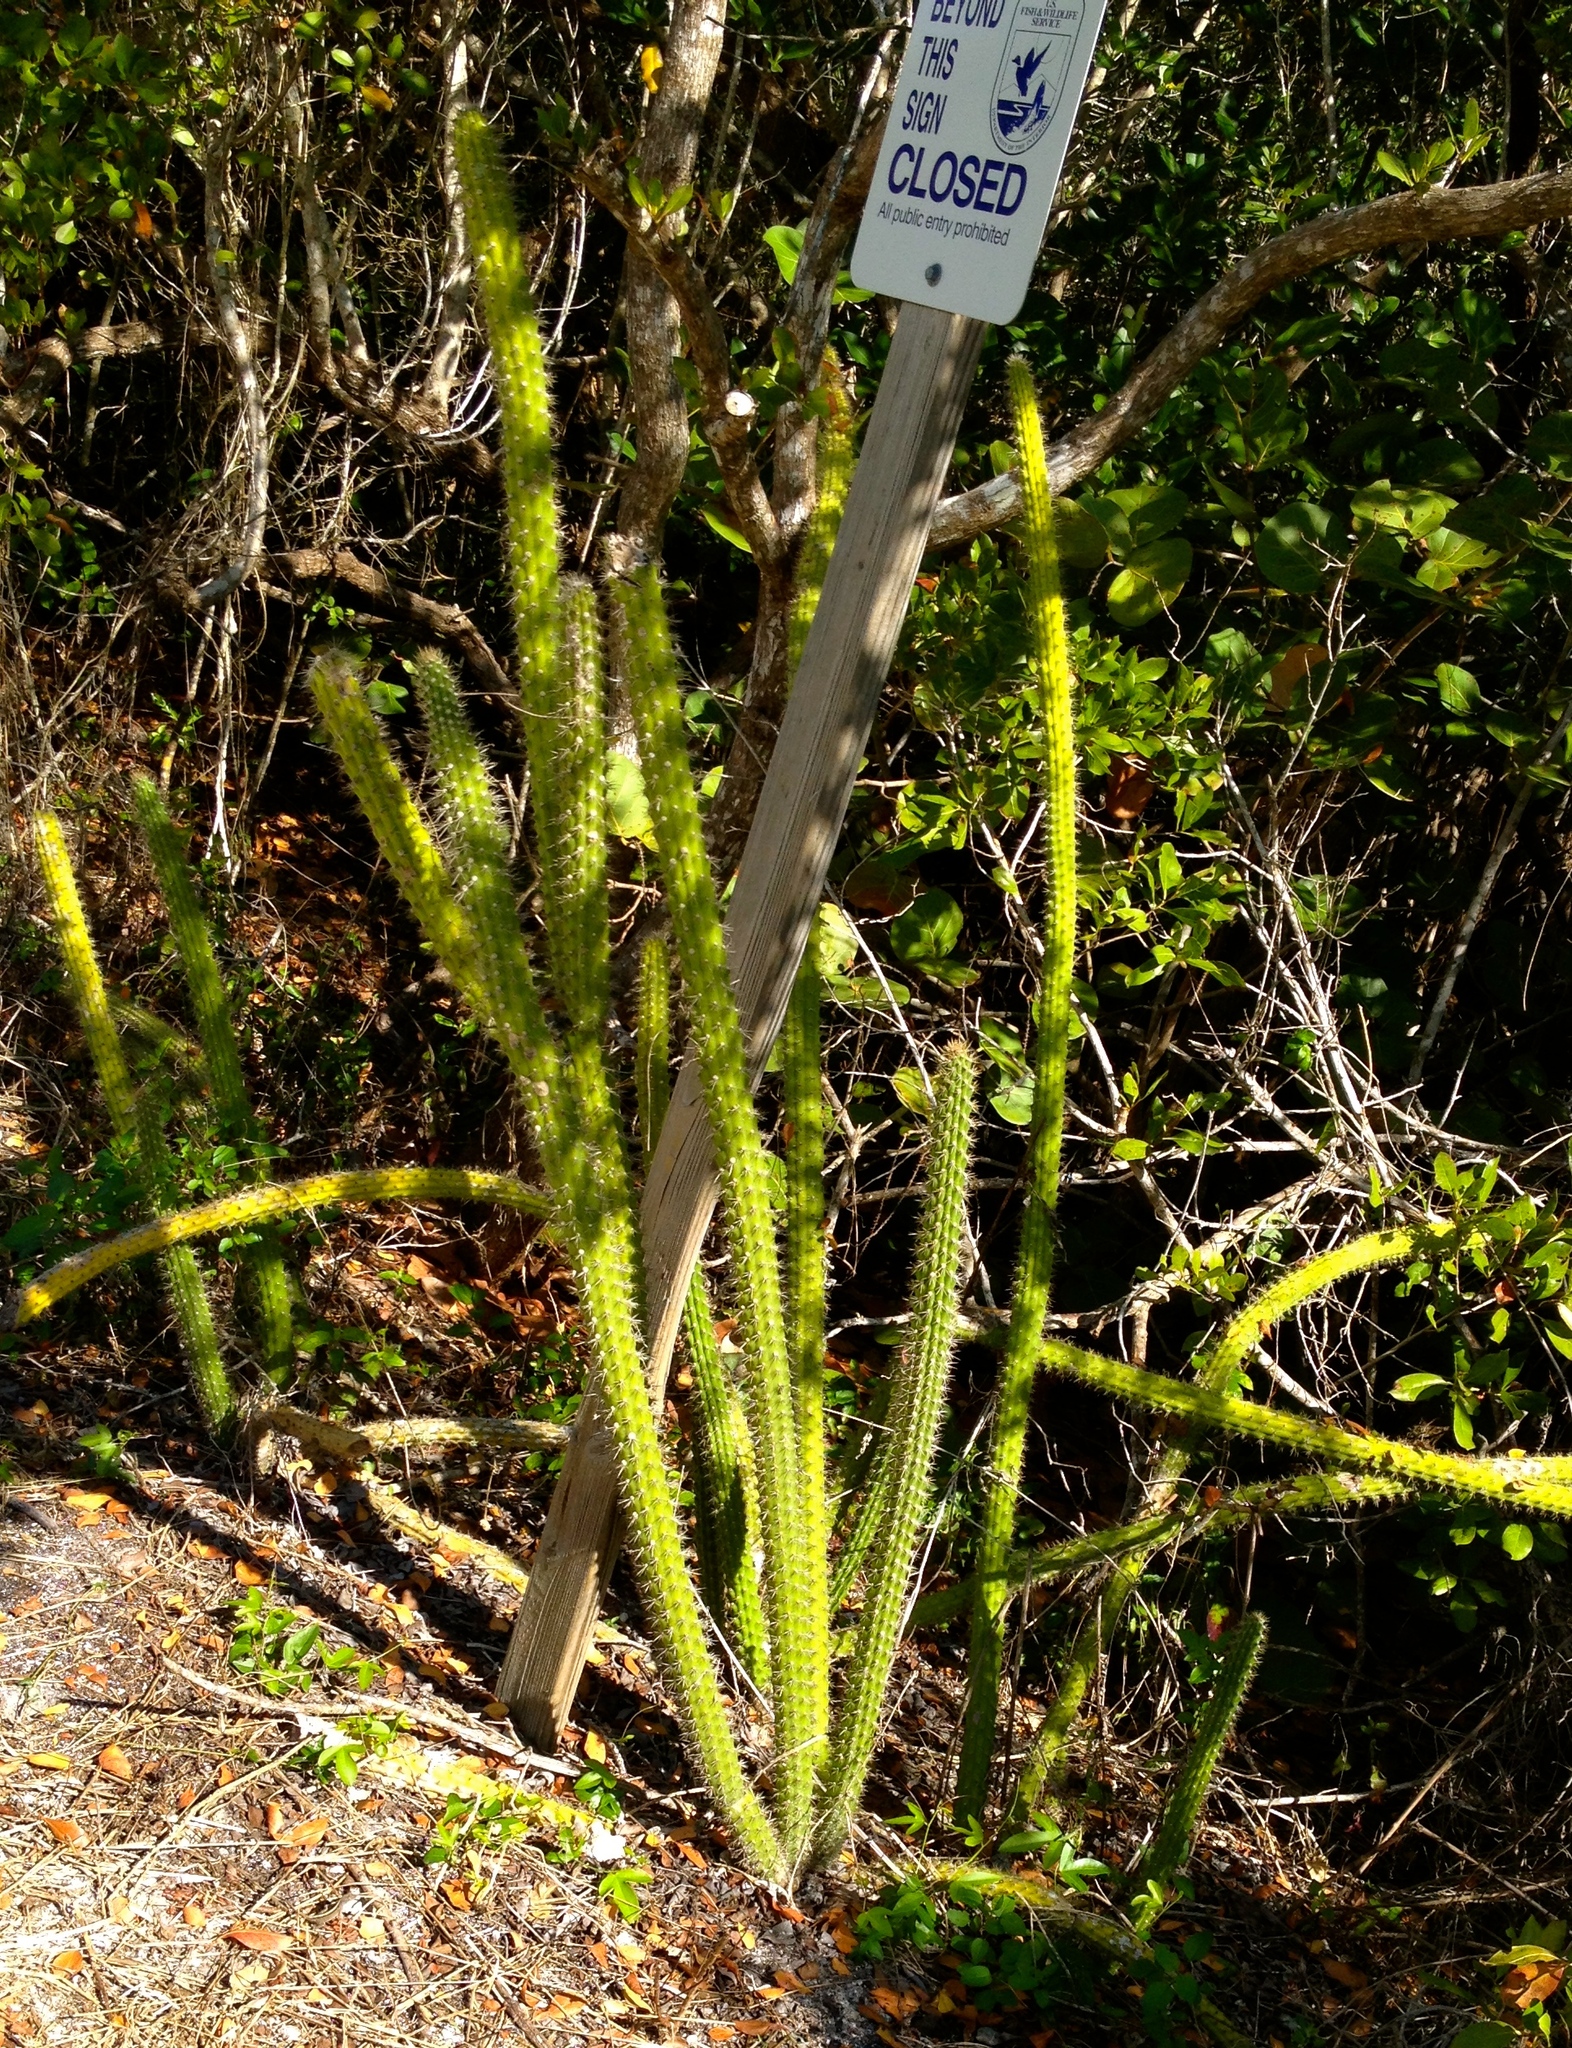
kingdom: Plantae
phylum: Tracheophyta
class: Magnoliopsida
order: Caryophyllales
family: Cactaceae
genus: Harrisia
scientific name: Harrisia aboriginum
